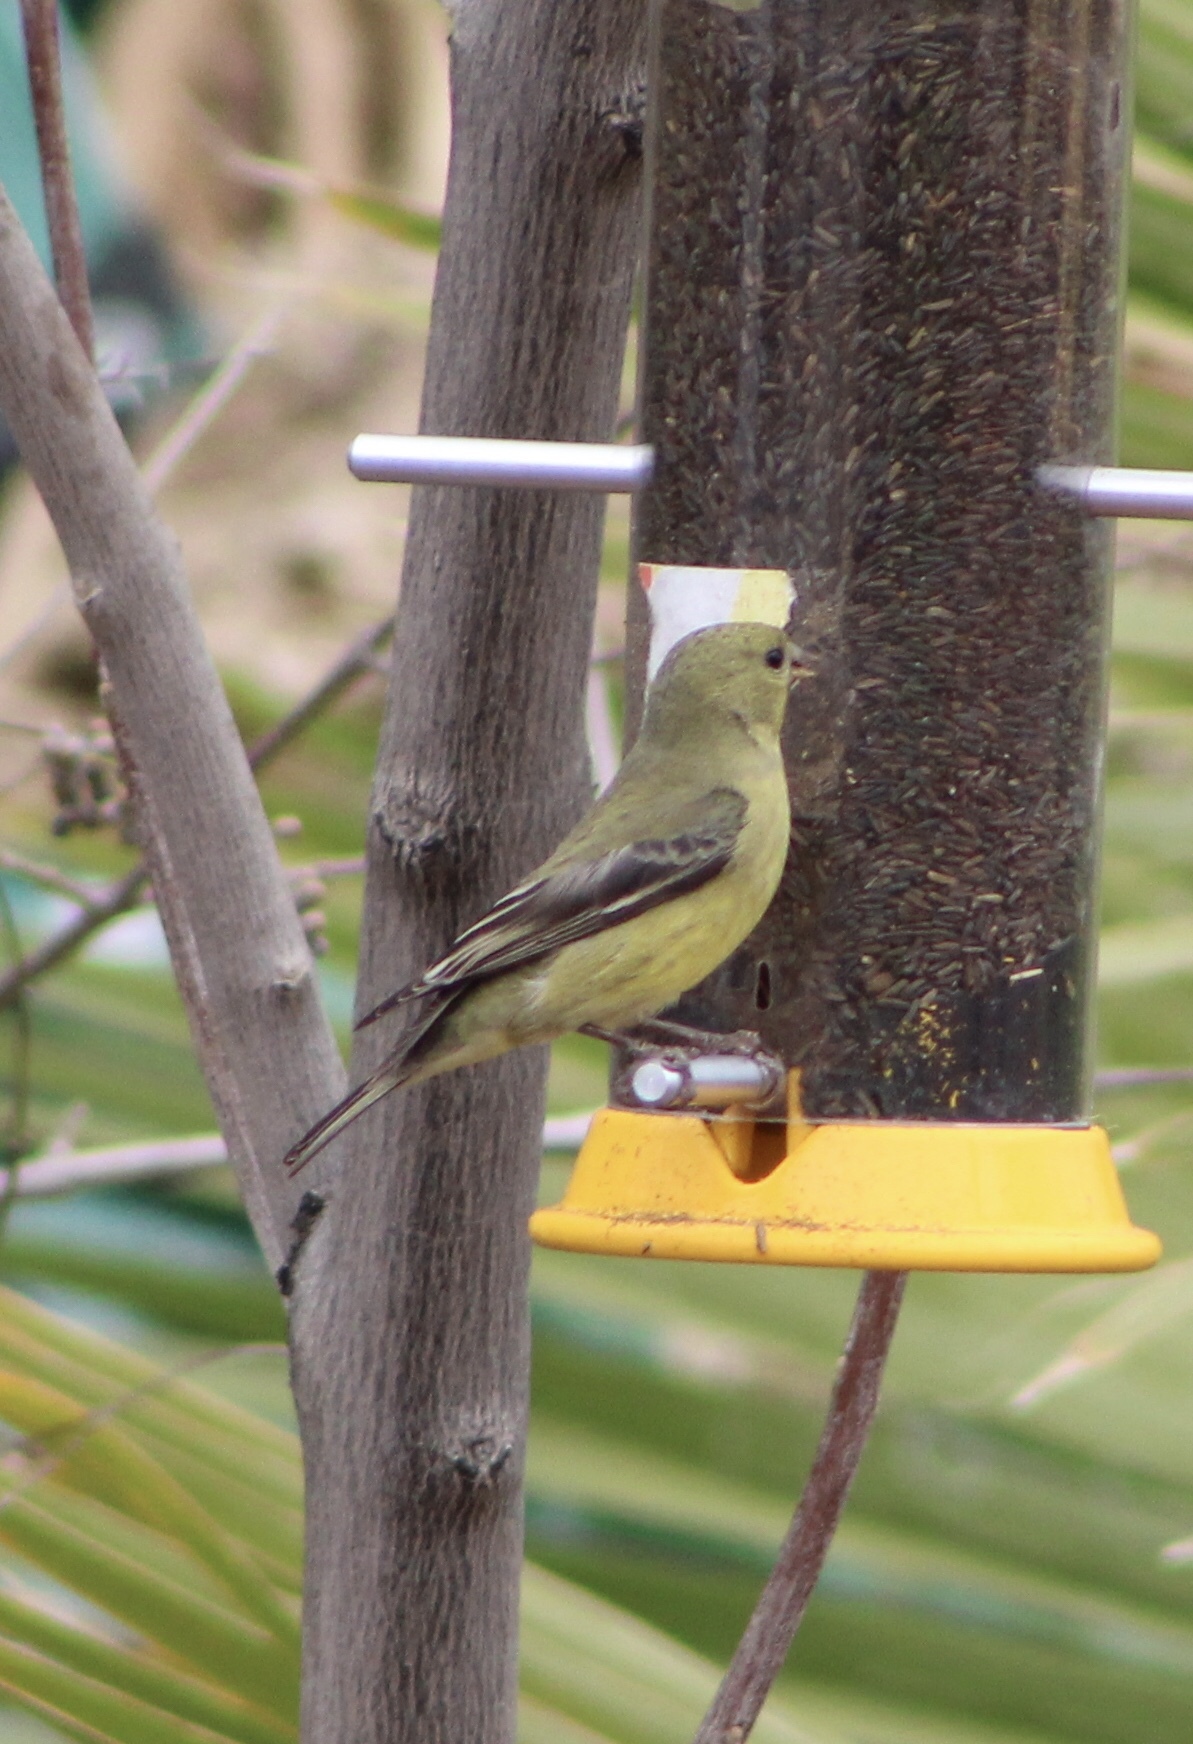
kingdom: Animalia
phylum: Chordata
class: Aves
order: Passeriformes
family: Fringillidae
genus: Spinus
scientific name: Spinus psaltria
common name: Lesser goldfinch
